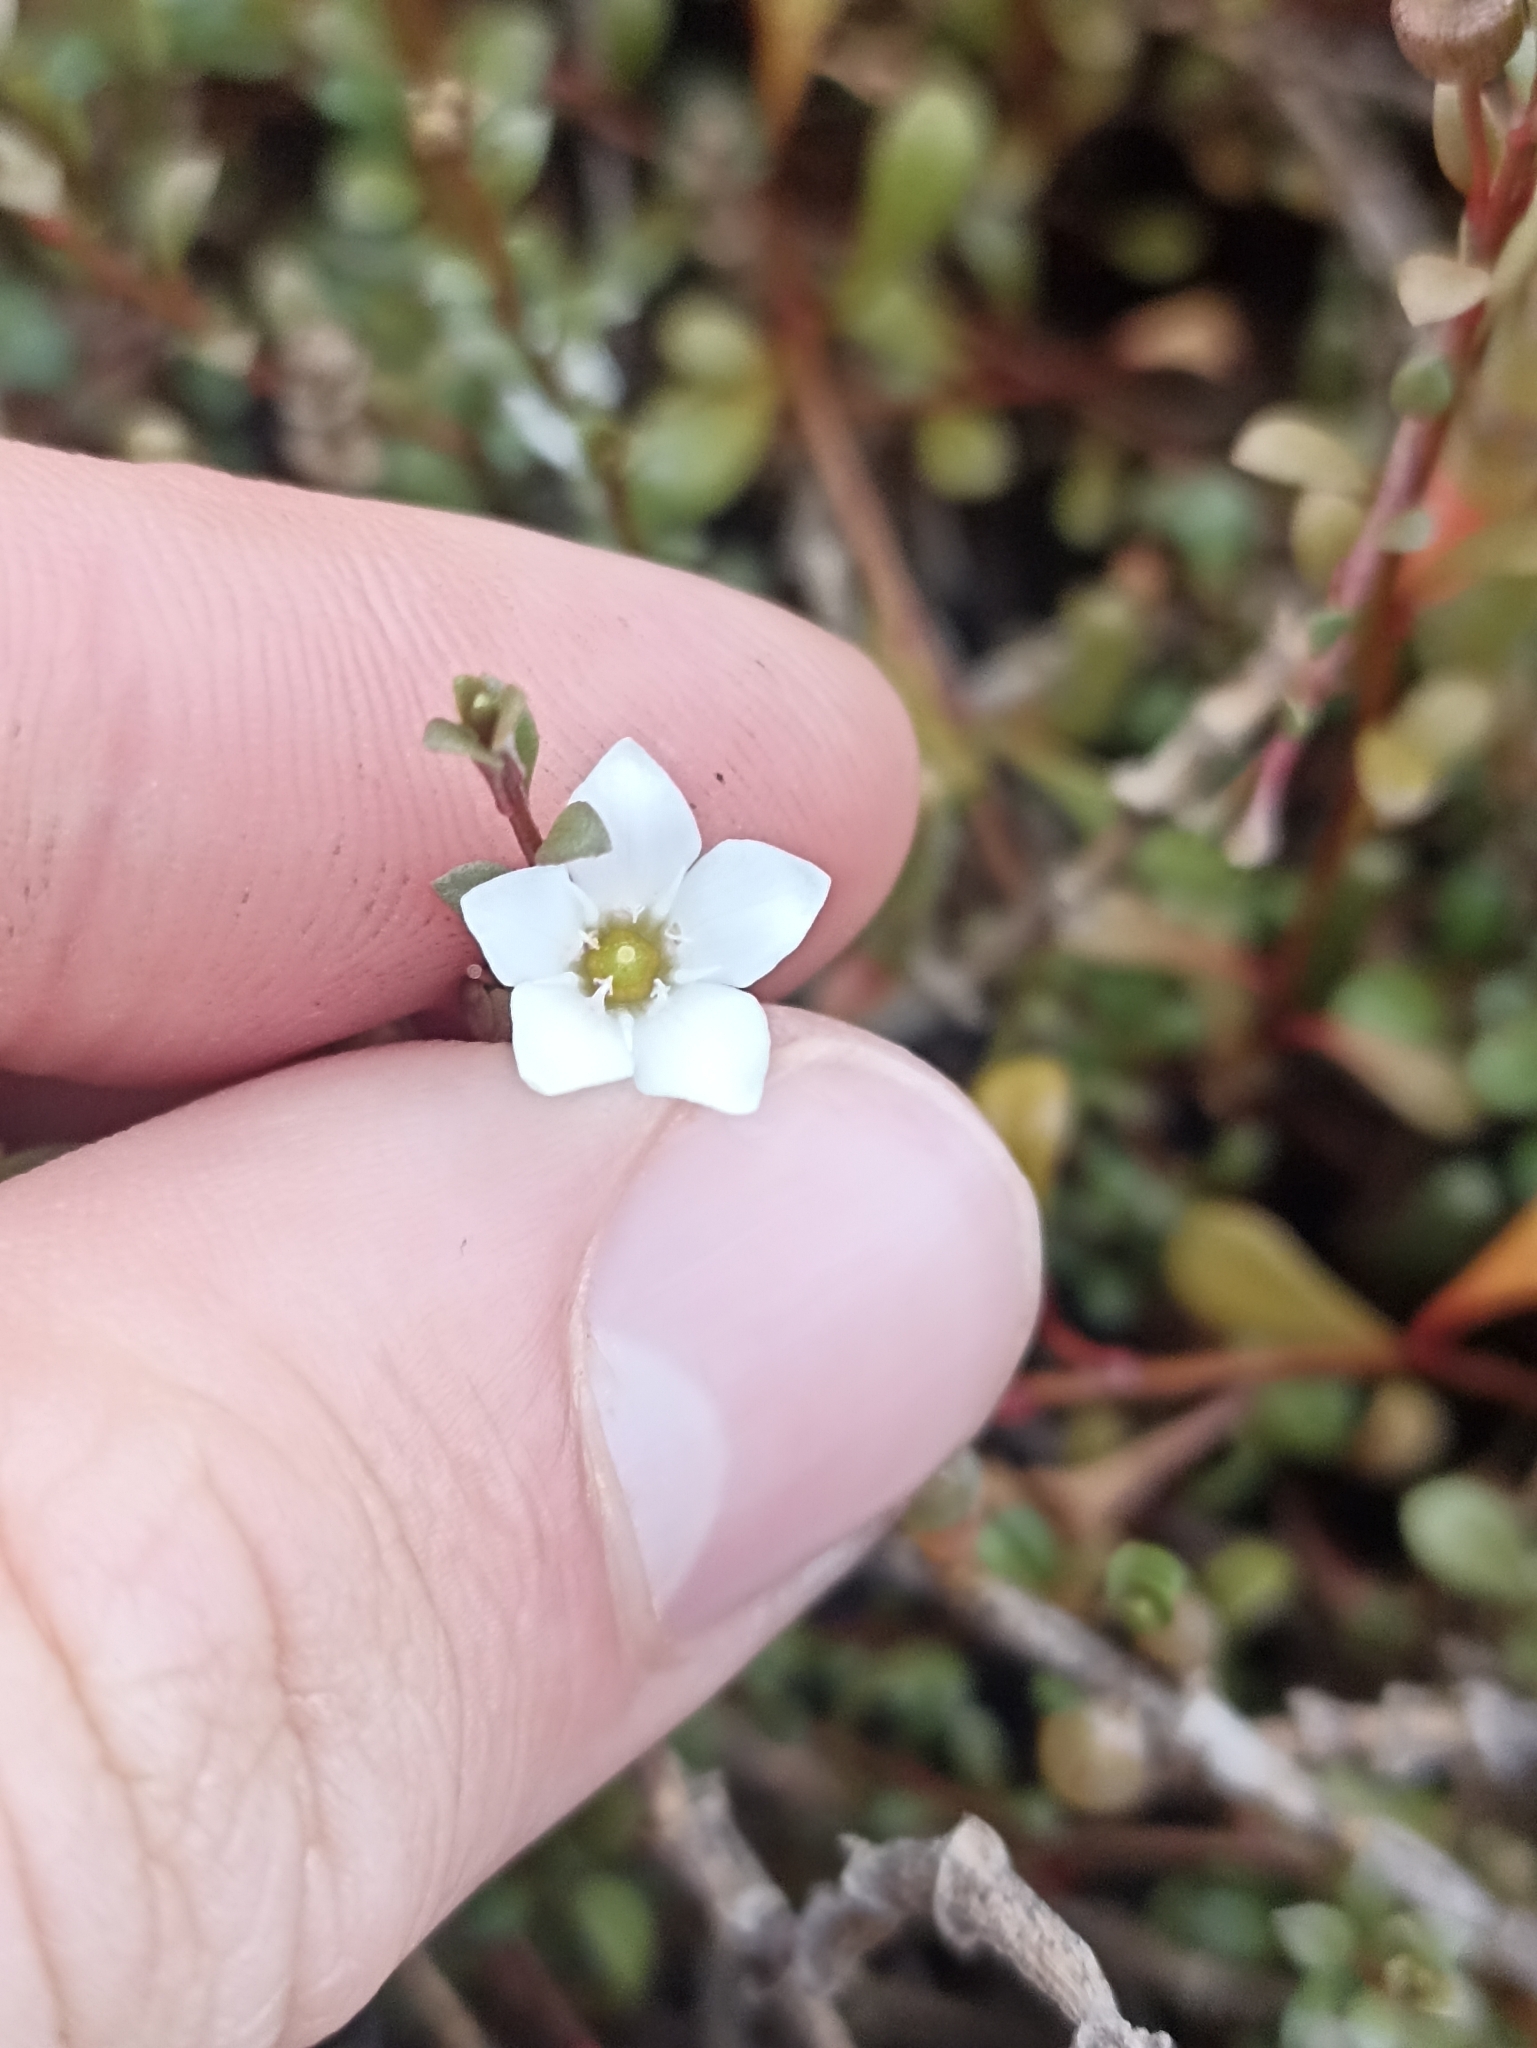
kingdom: Plantae
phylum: Tracheophyta
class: Magnoliopsida
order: Ericales
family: Primulaceae
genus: Samolus
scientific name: Samolus repens
